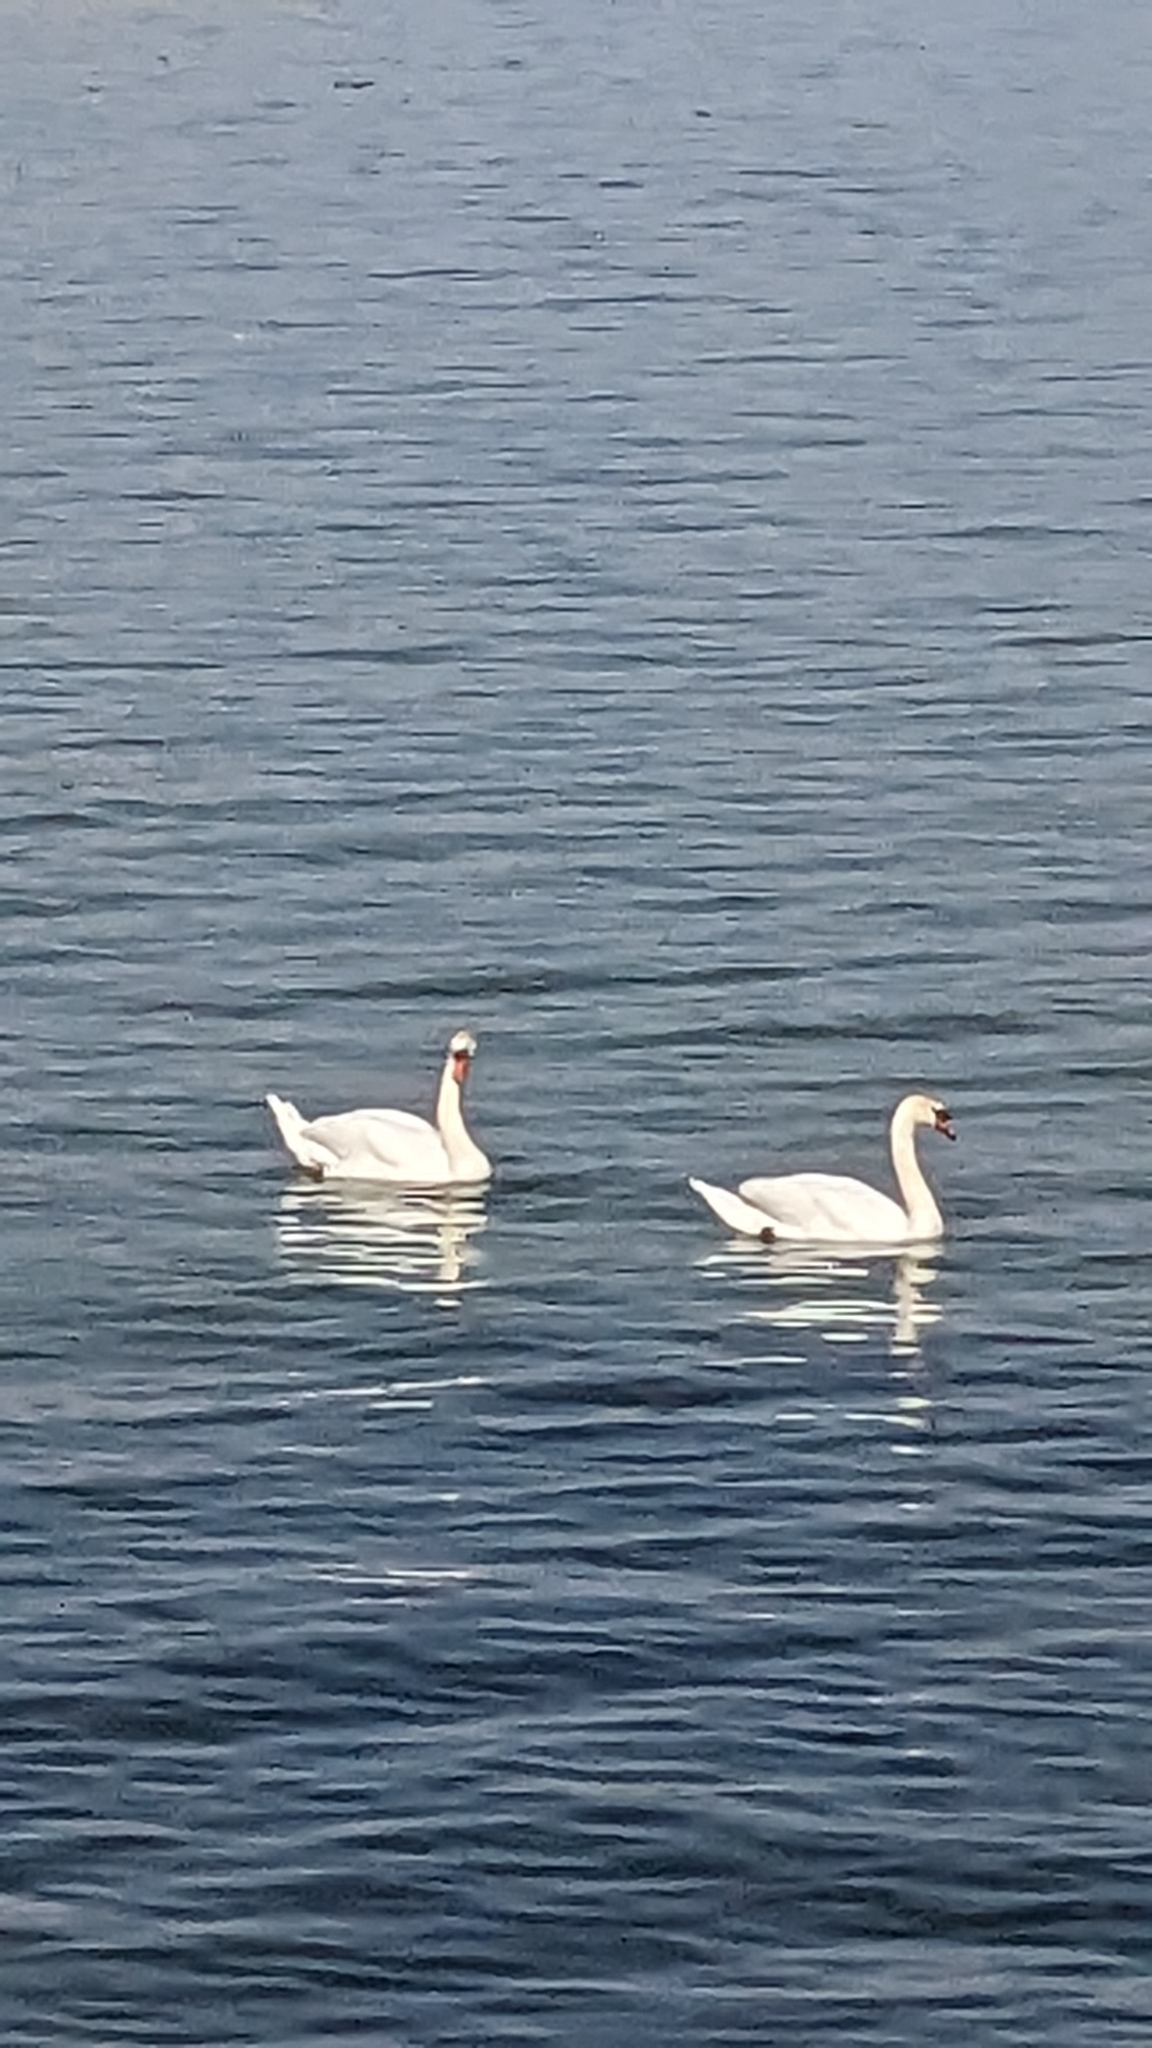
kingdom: Animalia
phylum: Chordata
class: Aves
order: Anseriformes
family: Anatidae
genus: Cygnus
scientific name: Cygnus olor
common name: Mute swan
